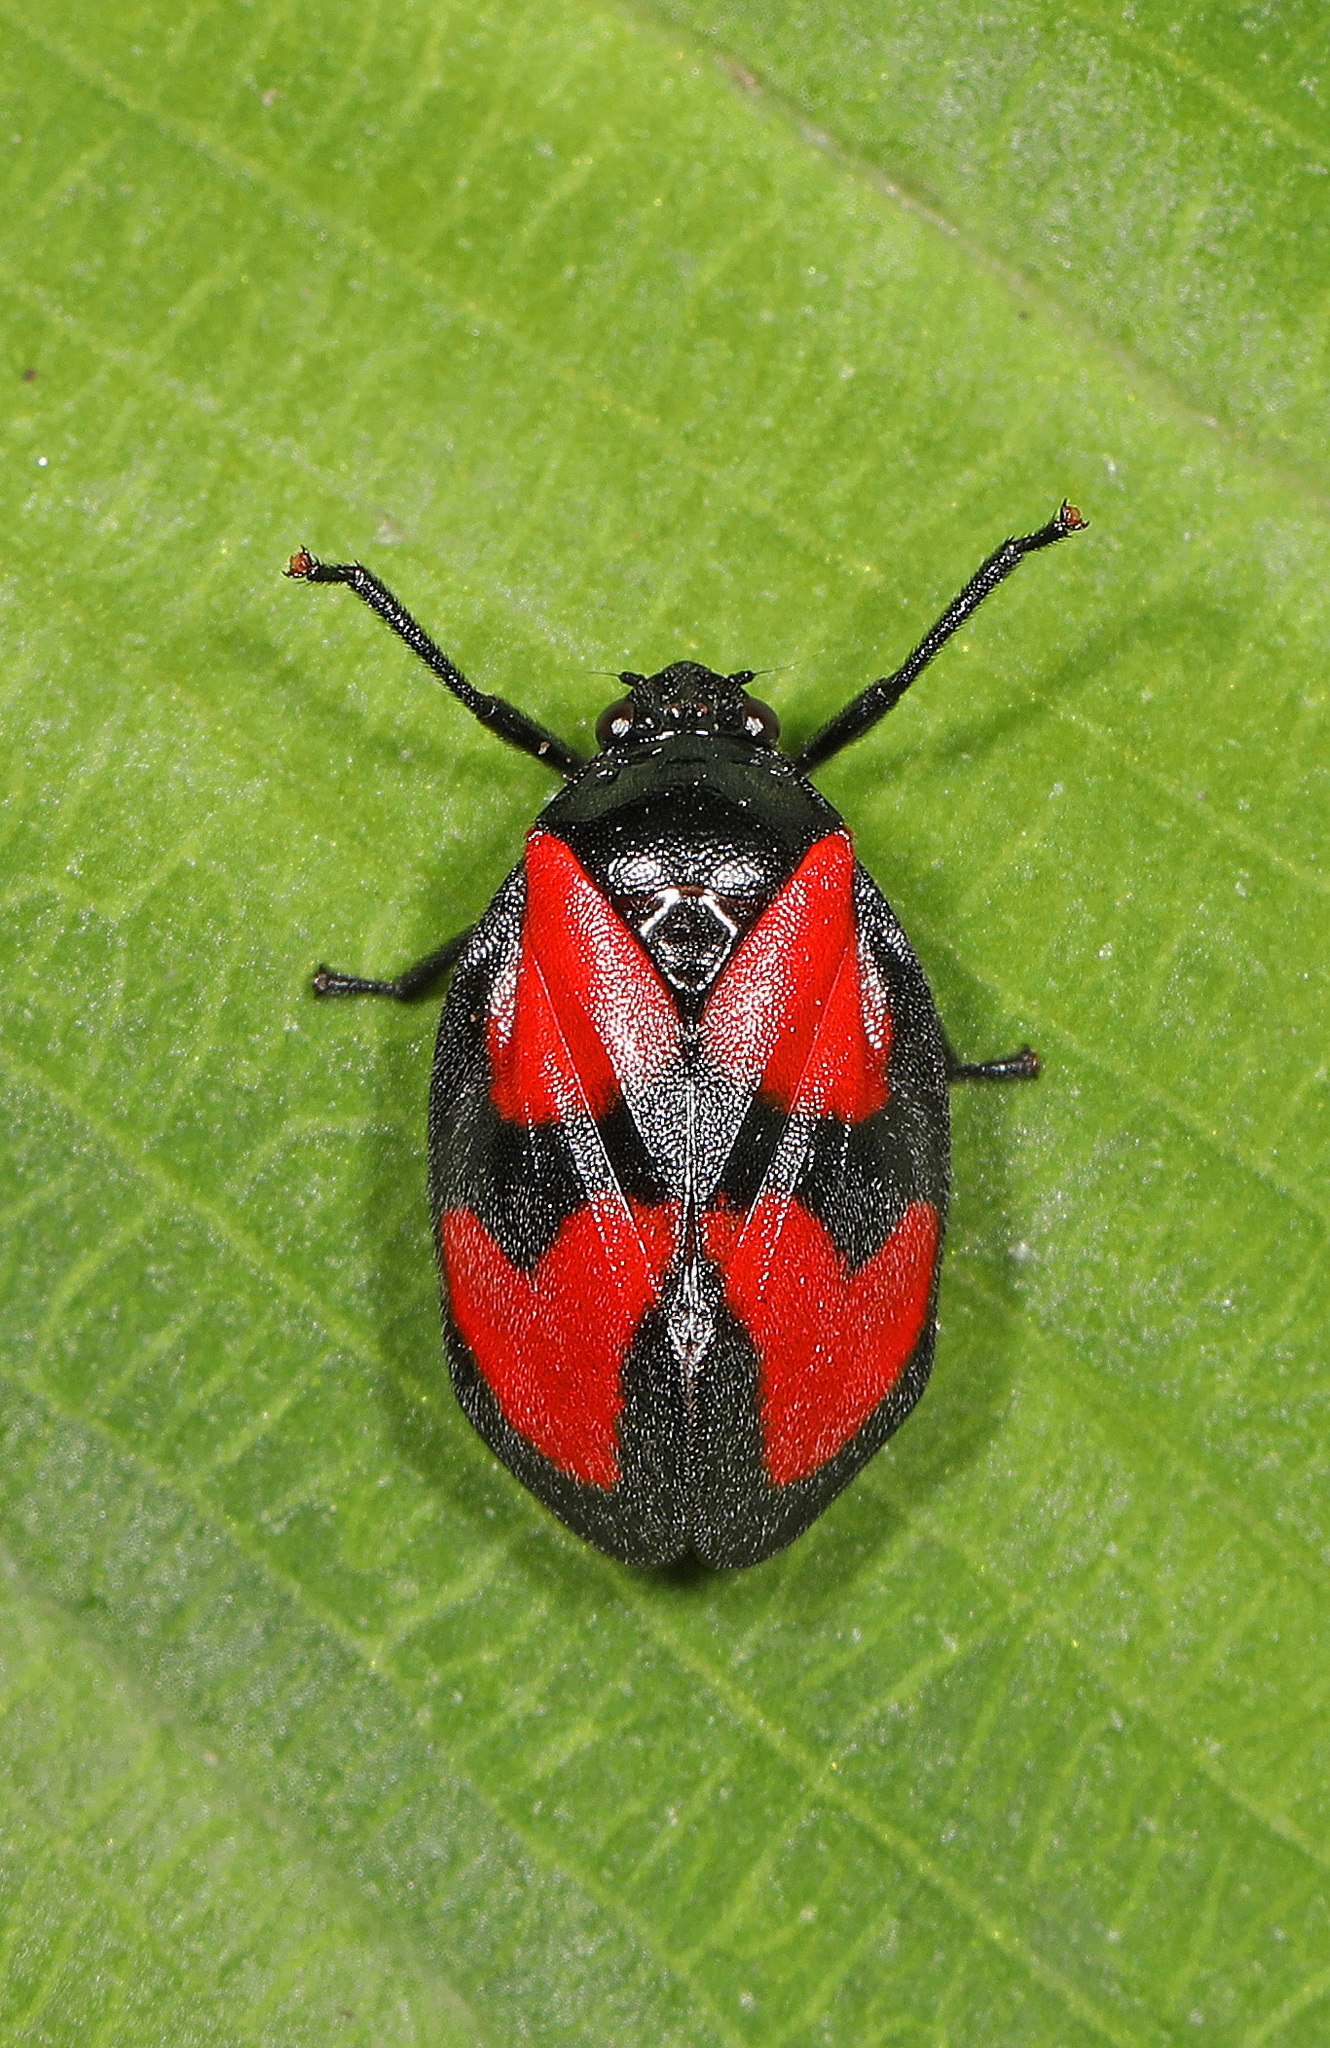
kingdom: Animalia
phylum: Arthropoda
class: Insecta
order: Hemiptera
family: Cercopidae
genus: Mahanarva
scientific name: Mahanarva cruxminor
